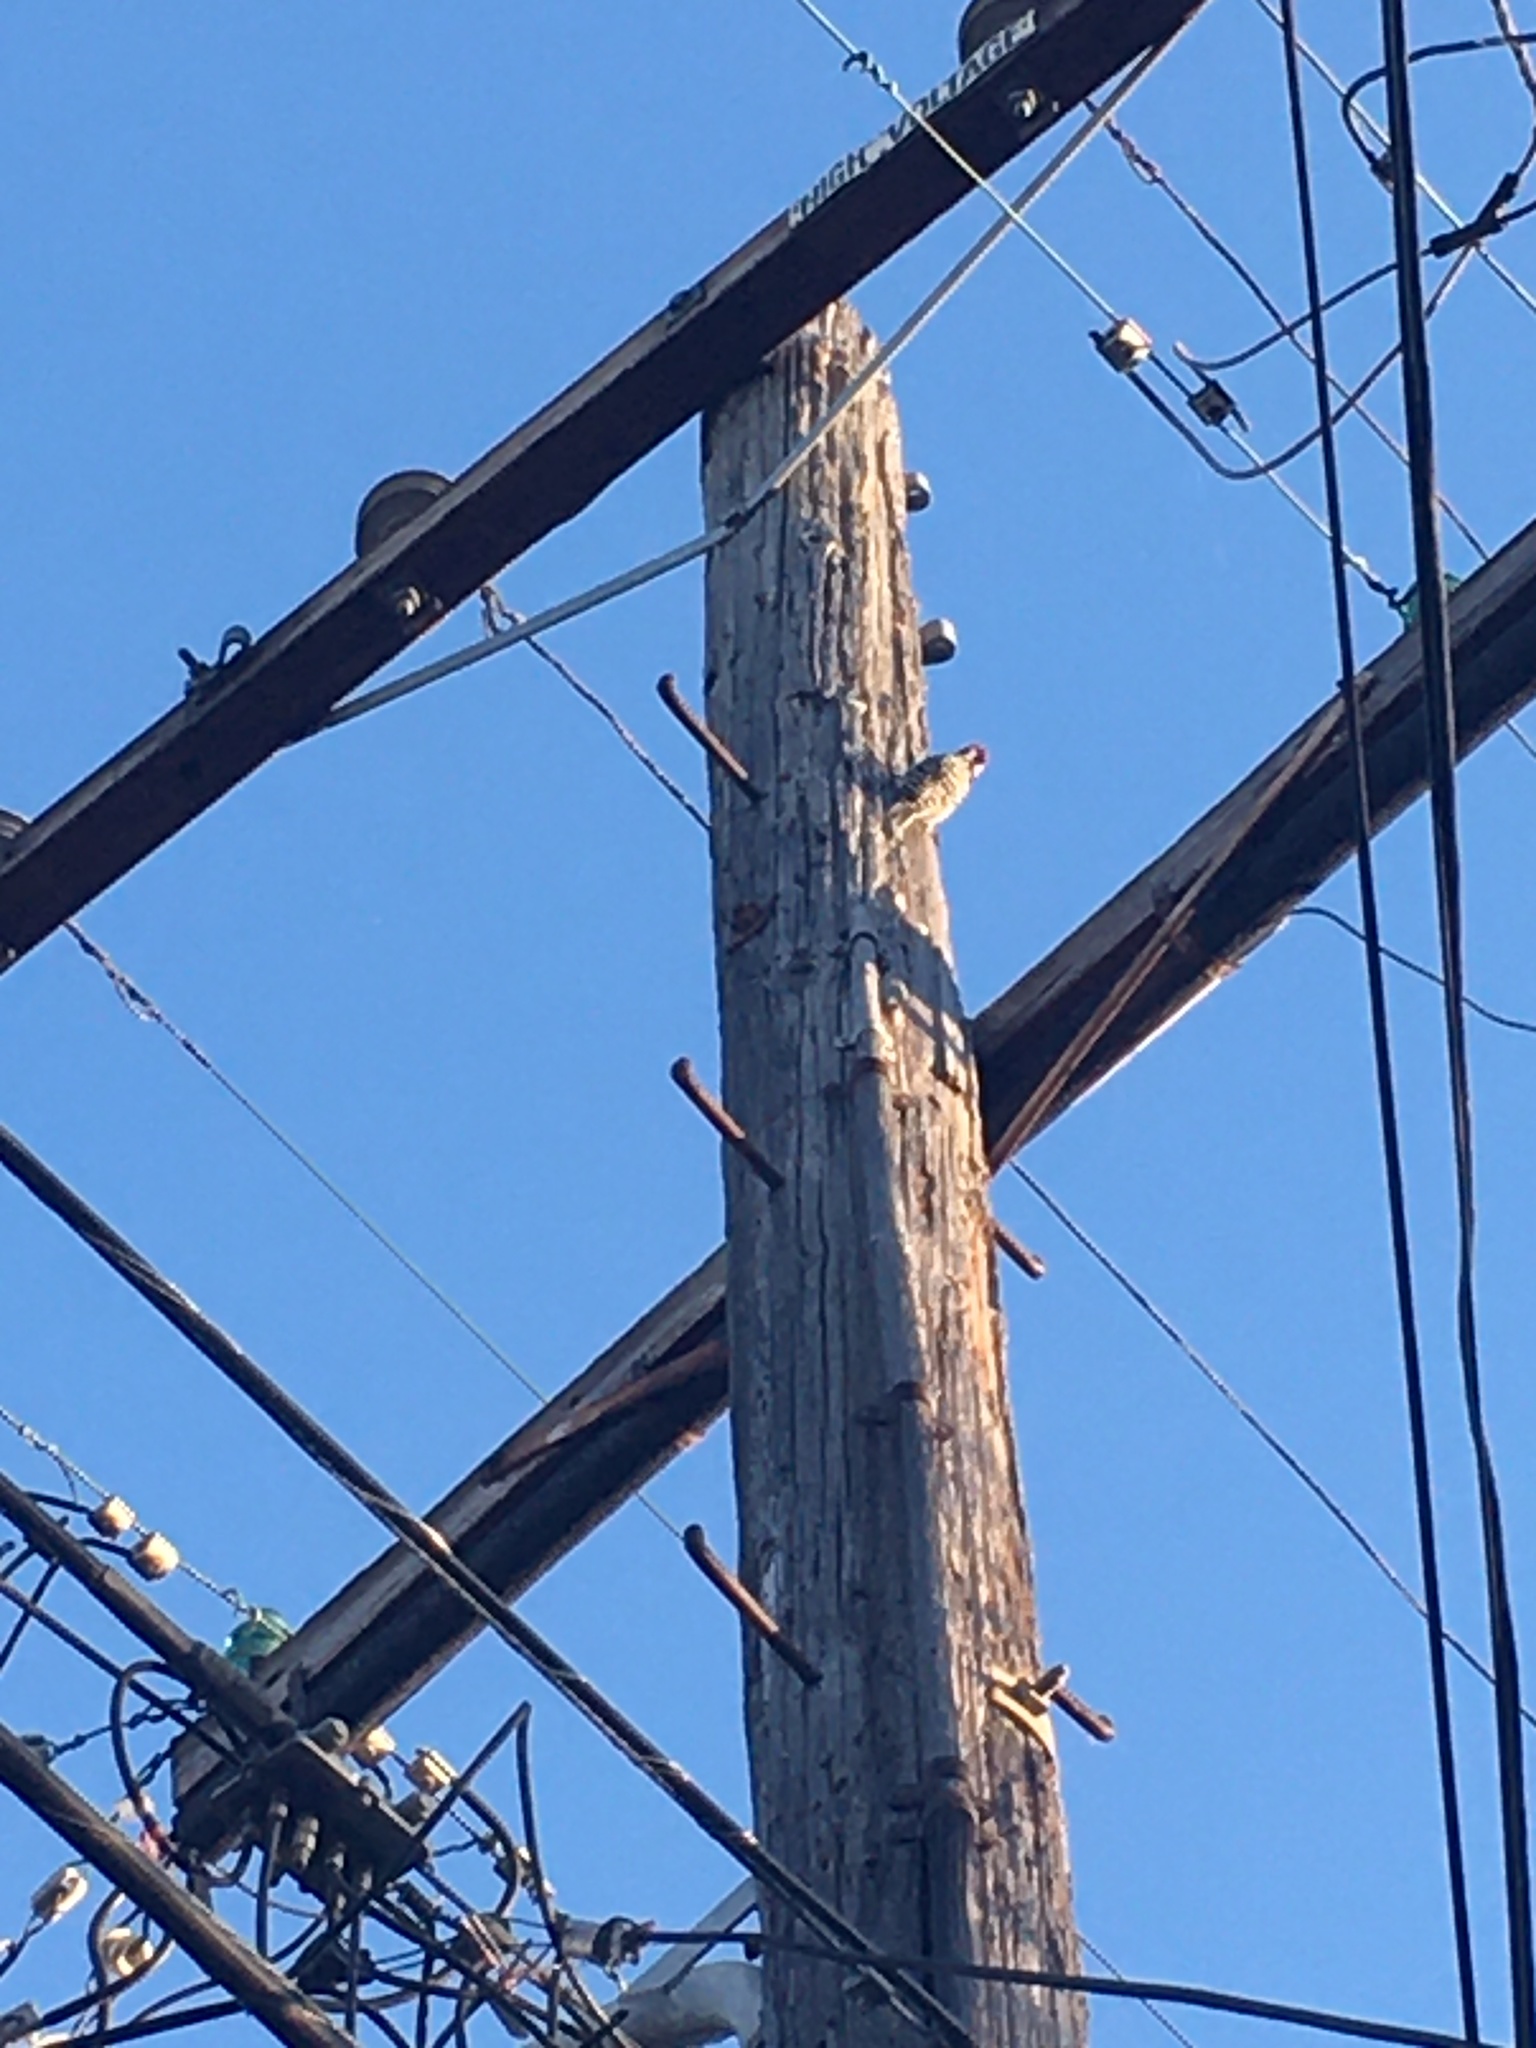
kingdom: Animalia
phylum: Chordata
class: Aves
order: Piciformes
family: Picidae
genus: Dryobates
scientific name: Dryobates nuttallii
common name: Nuttall's woodpecker
